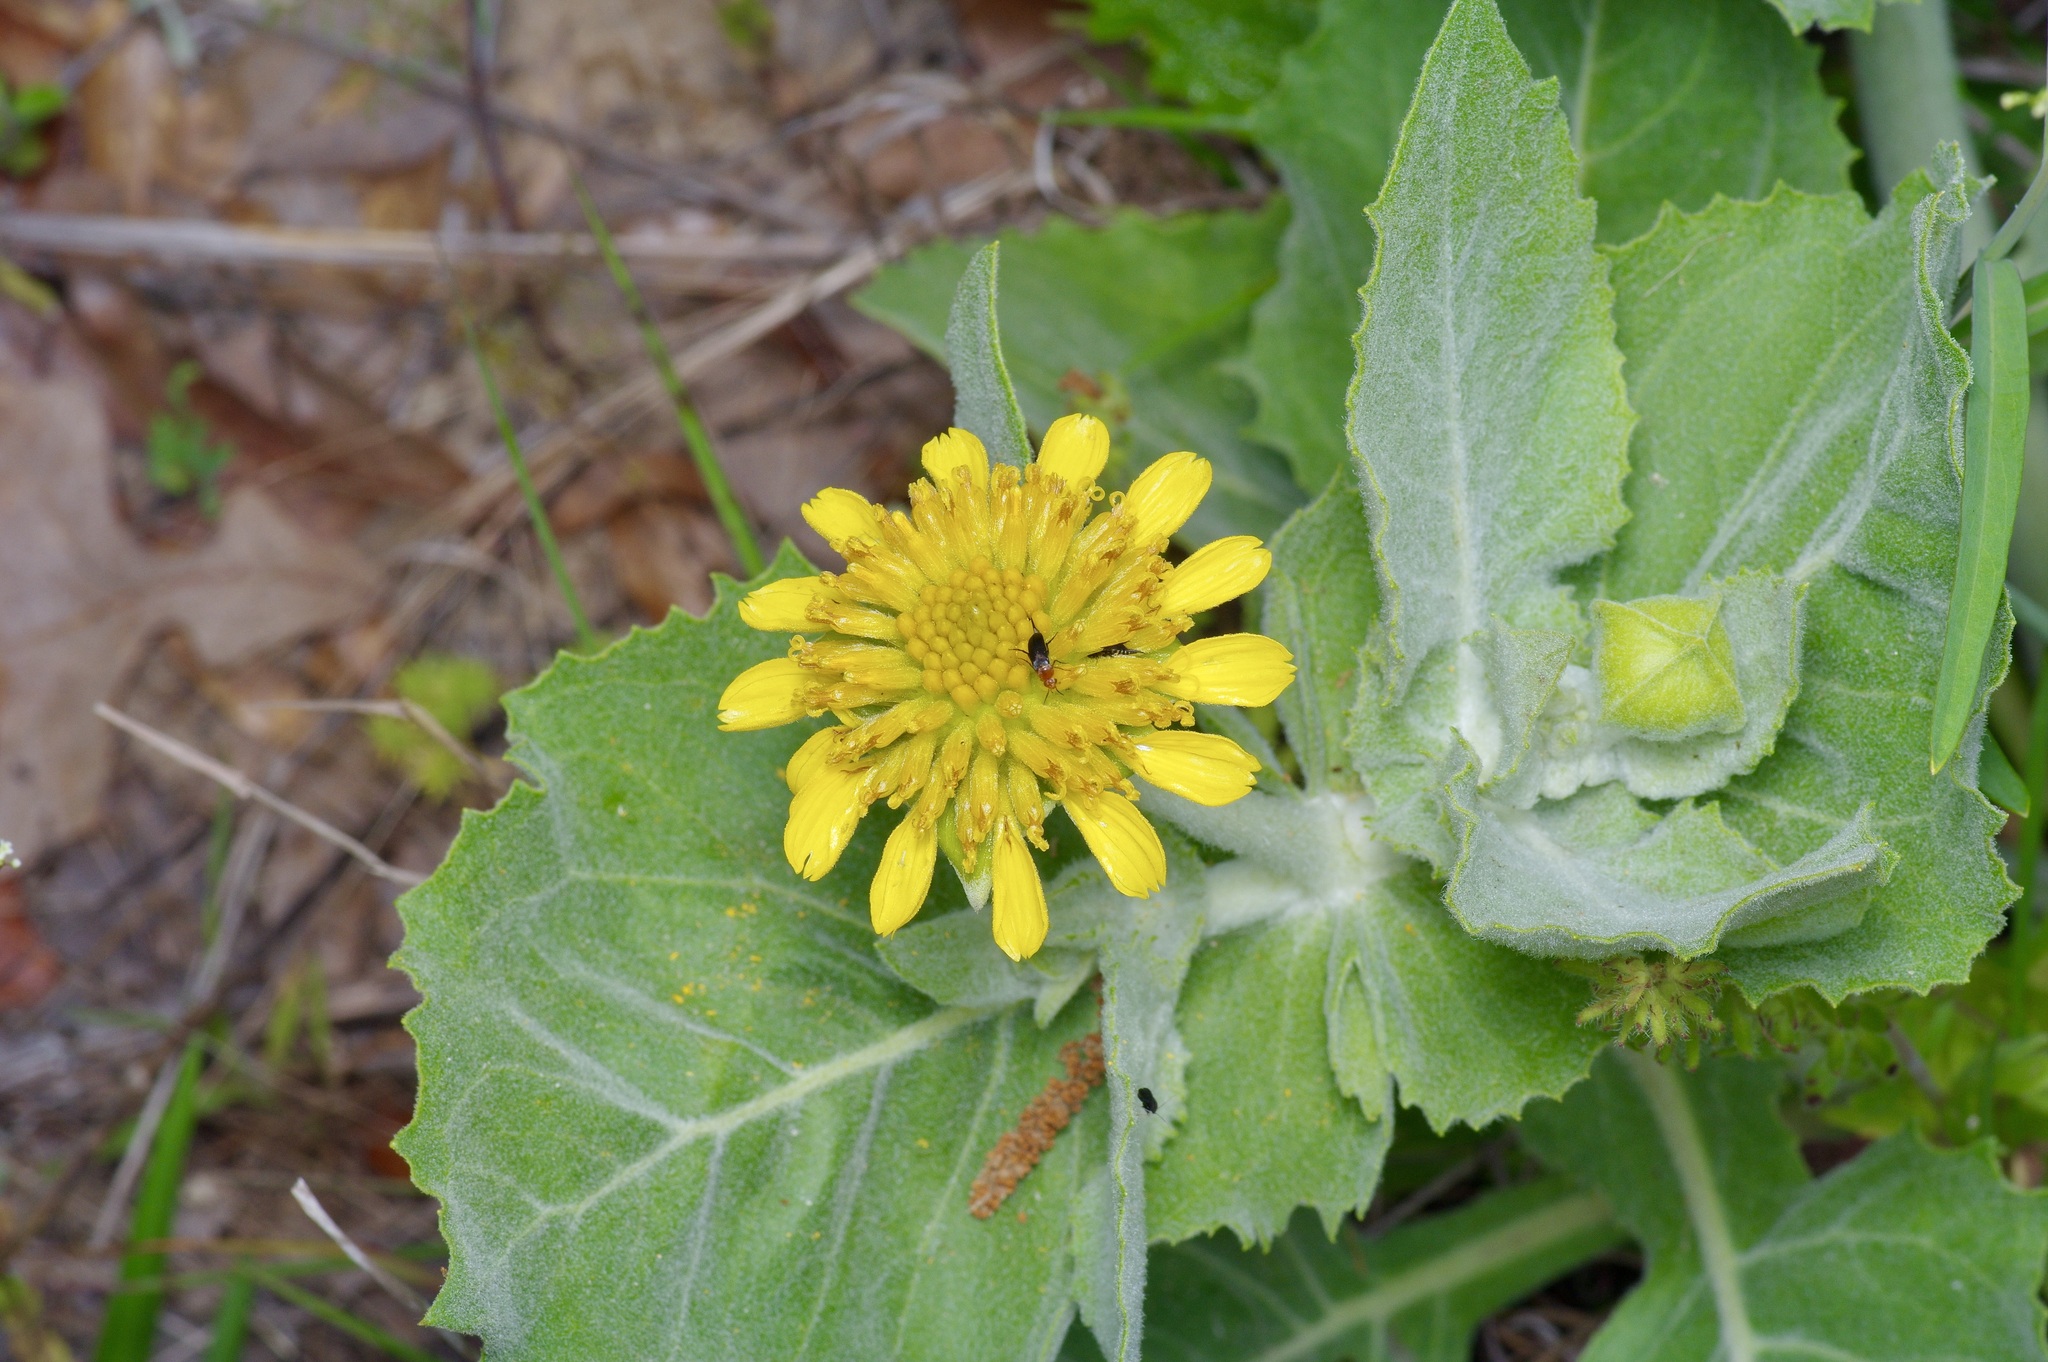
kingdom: Plantae
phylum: Tracheophyta
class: Magnoliopsida
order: Asterales
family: Asteraceae
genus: Tetragonotheca
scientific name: Tetragonotheca ludoviciana
